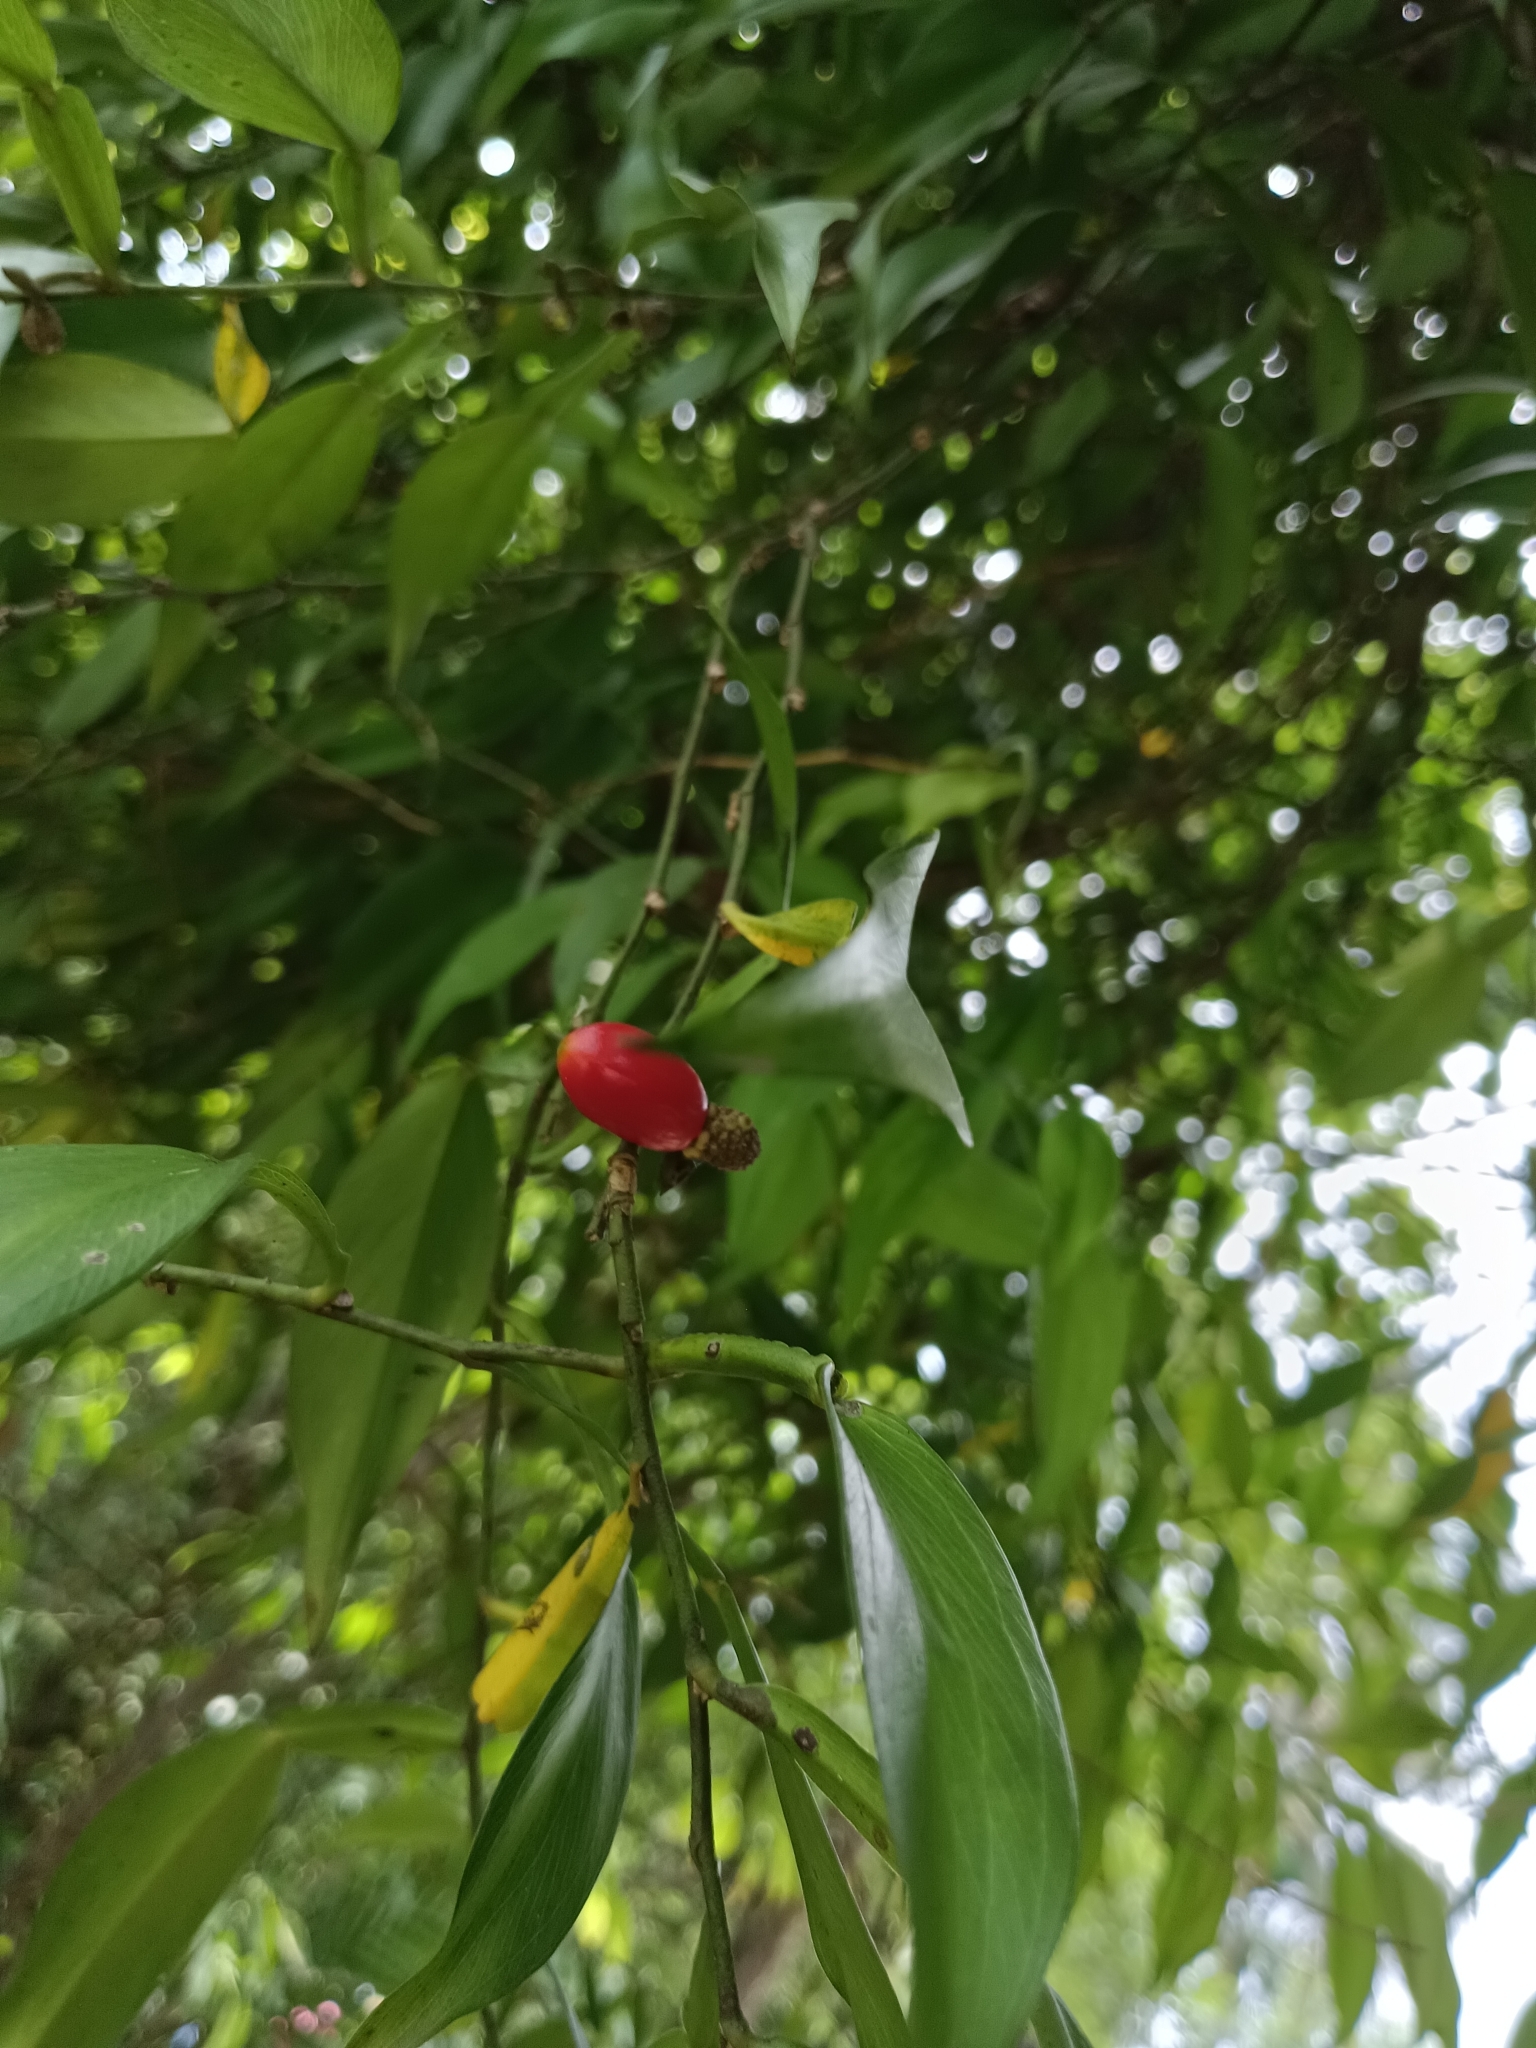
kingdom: Plantae
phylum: Tracheophyta
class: Liliopsida
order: Alismatales
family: Araceae
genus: Pothos
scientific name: Pothos chinensis
